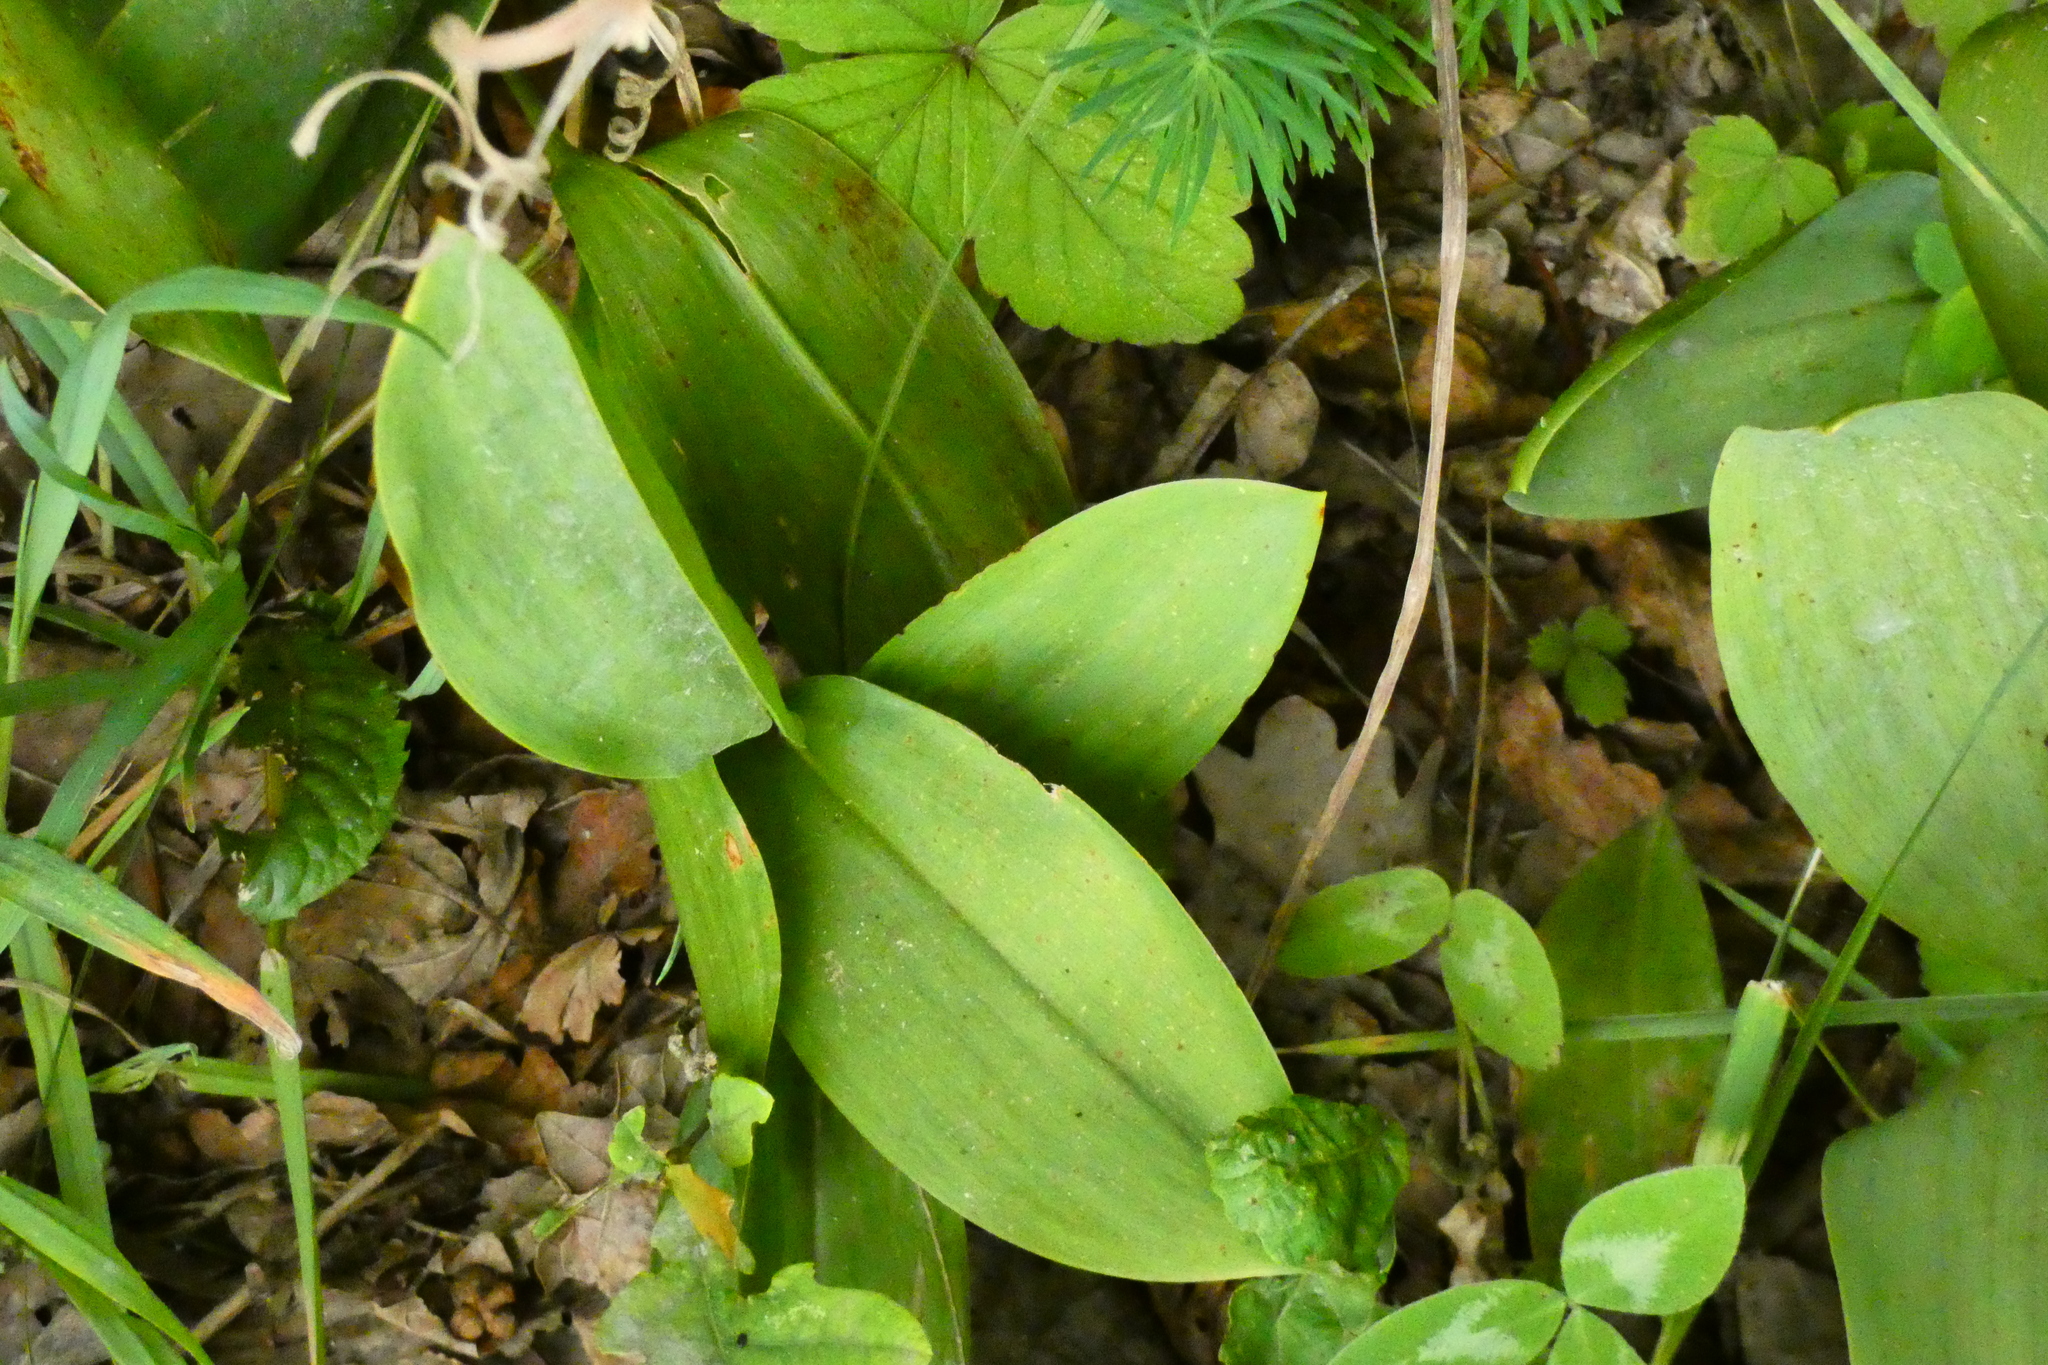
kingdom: Plantae
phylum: Tracheophyta
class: Liliopsida
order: Asparagales
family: Asparagaceae
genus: Convallaria
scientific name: Convallaria majalis
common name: Lily-of-the-valley
